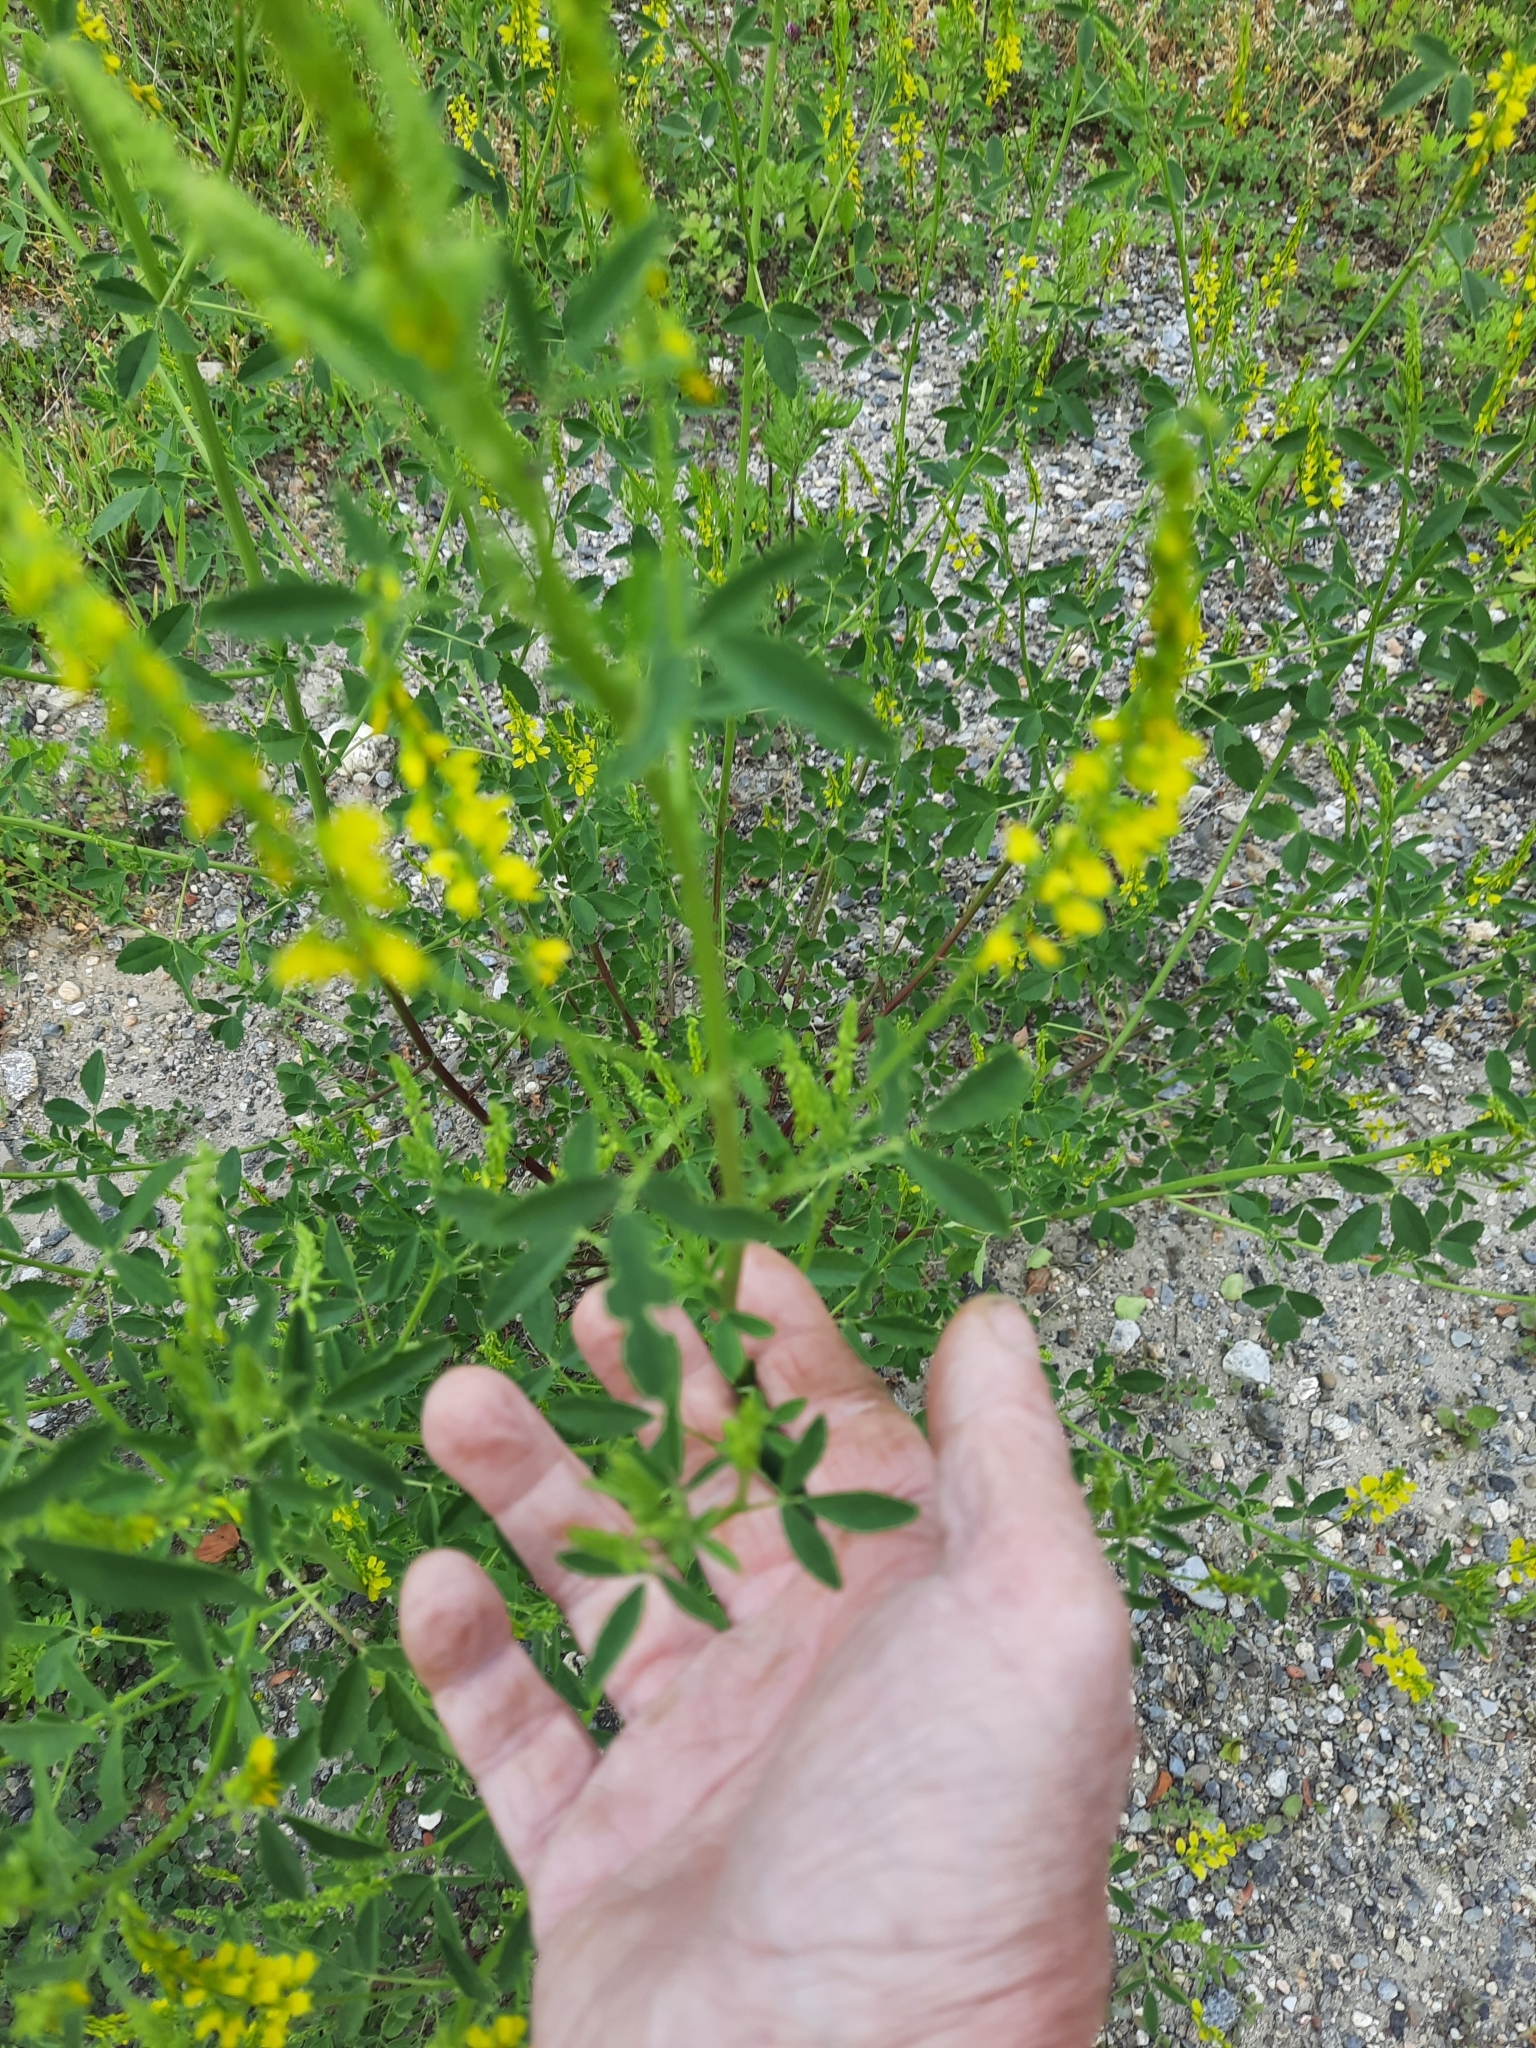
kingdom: Plantae
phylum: Tracheophyta
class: Magnoliopsida
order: Fabales
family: Fabaceae
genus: Melilotus
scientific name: Melilotus officinalis
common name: Sweetclover
